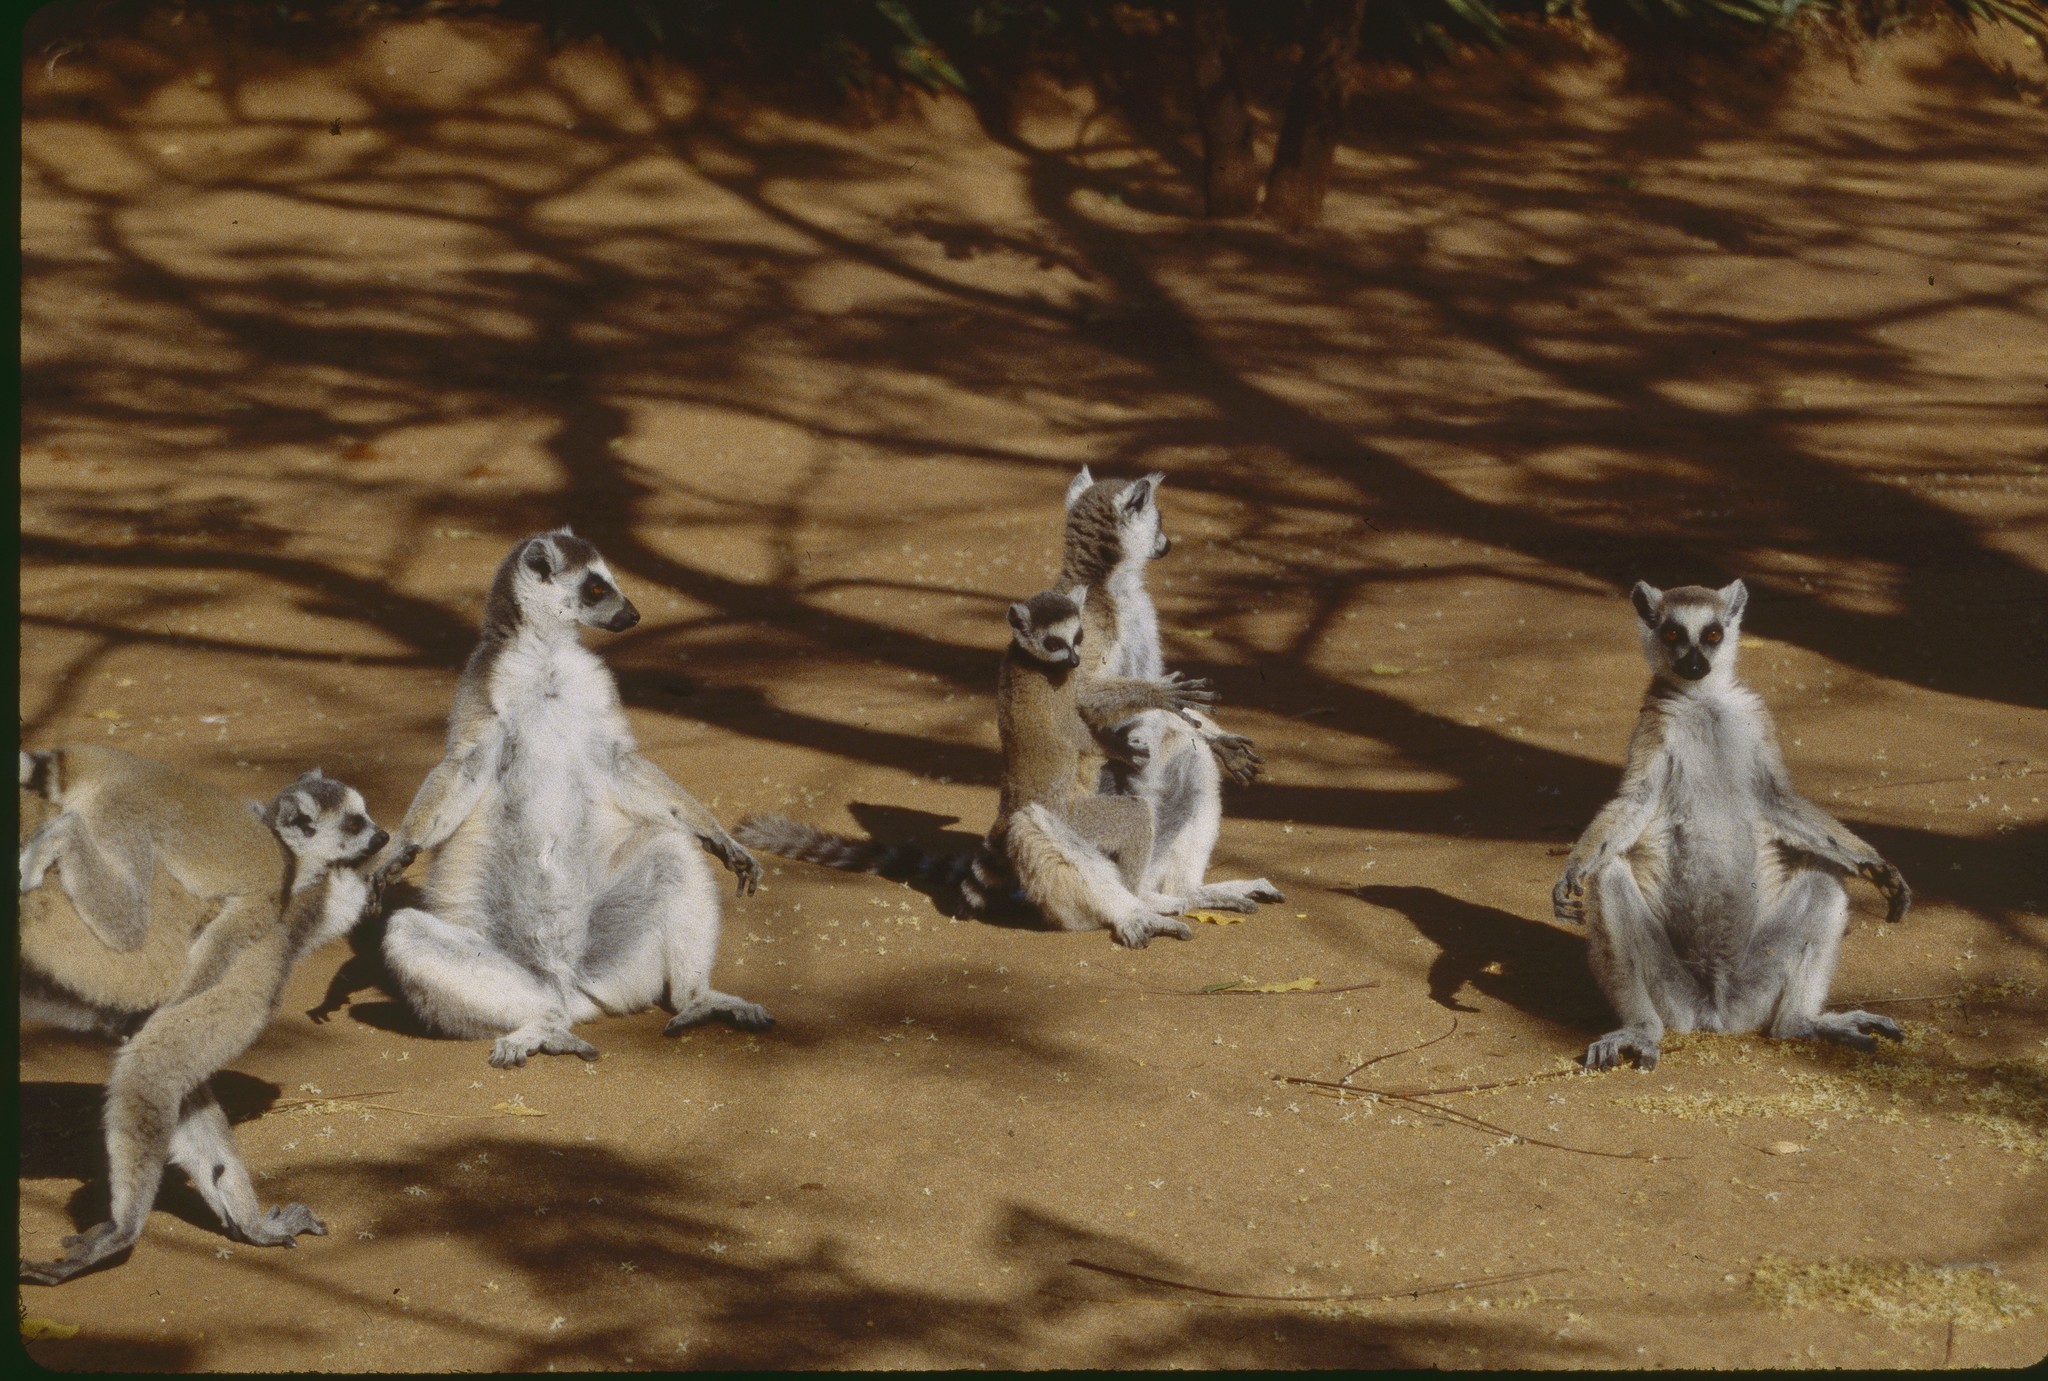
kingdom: Animalia
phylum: Chordata
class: Mammalia
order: Primates
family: Lemuridae
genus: Lemur
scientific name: Lemur catta
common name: Ring-tailed lemur
